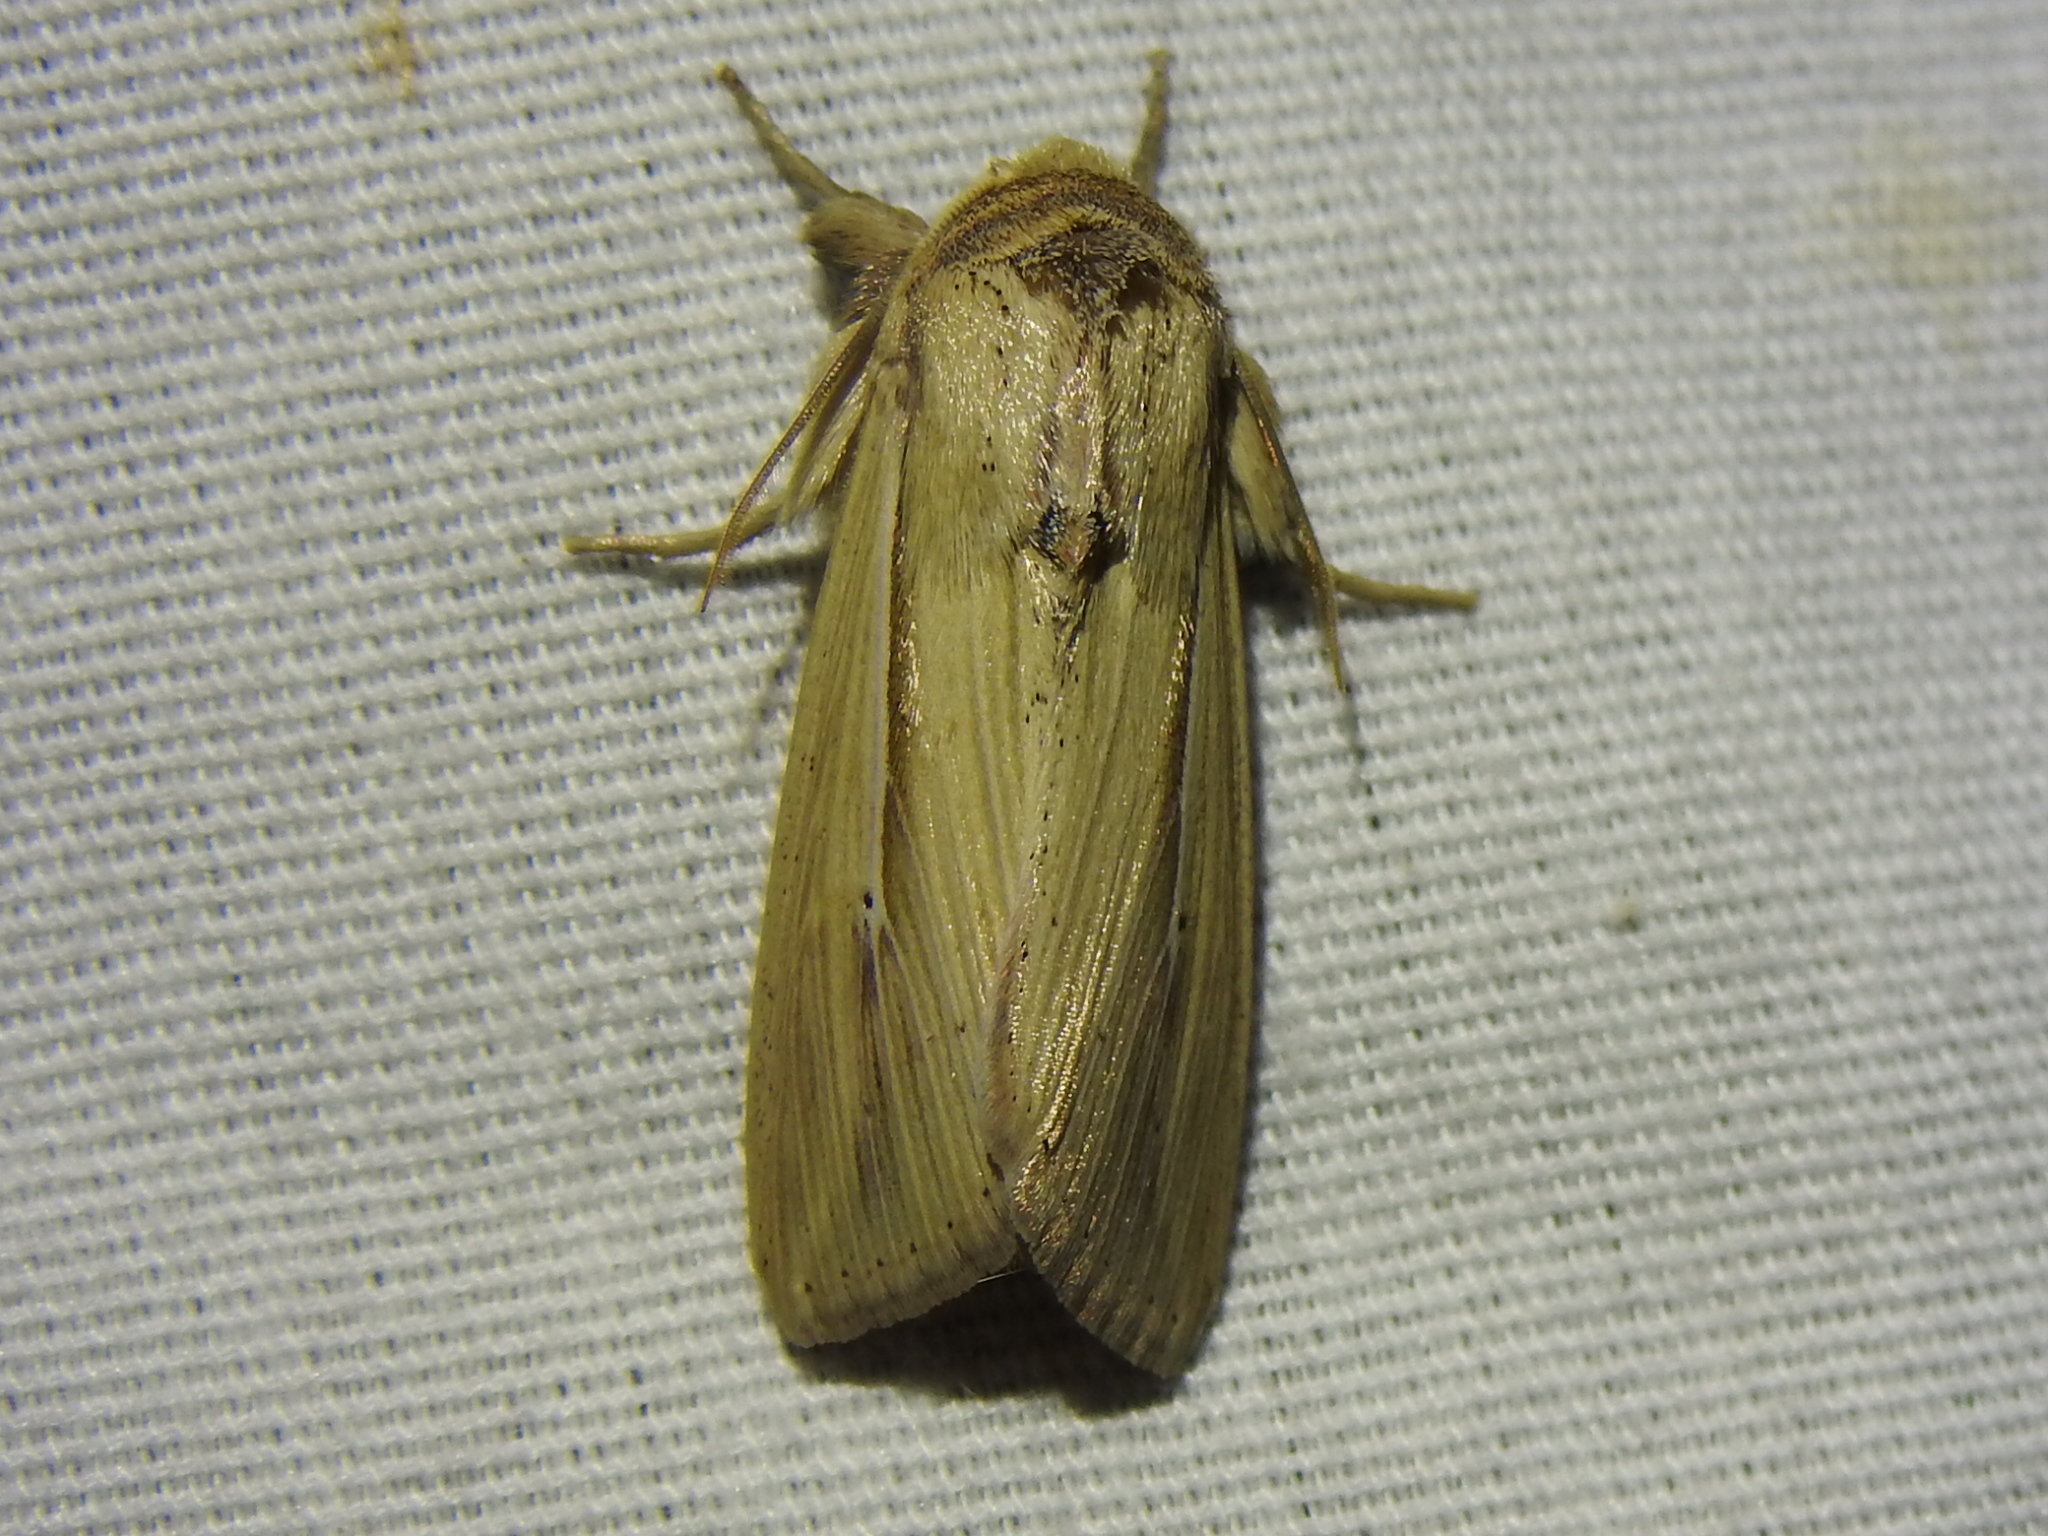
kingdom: Animalia
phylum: Arthropoda
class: Insecta
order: Lepidoptera
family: Noctuidae
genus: Leucania
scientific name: Leucania adjuta
